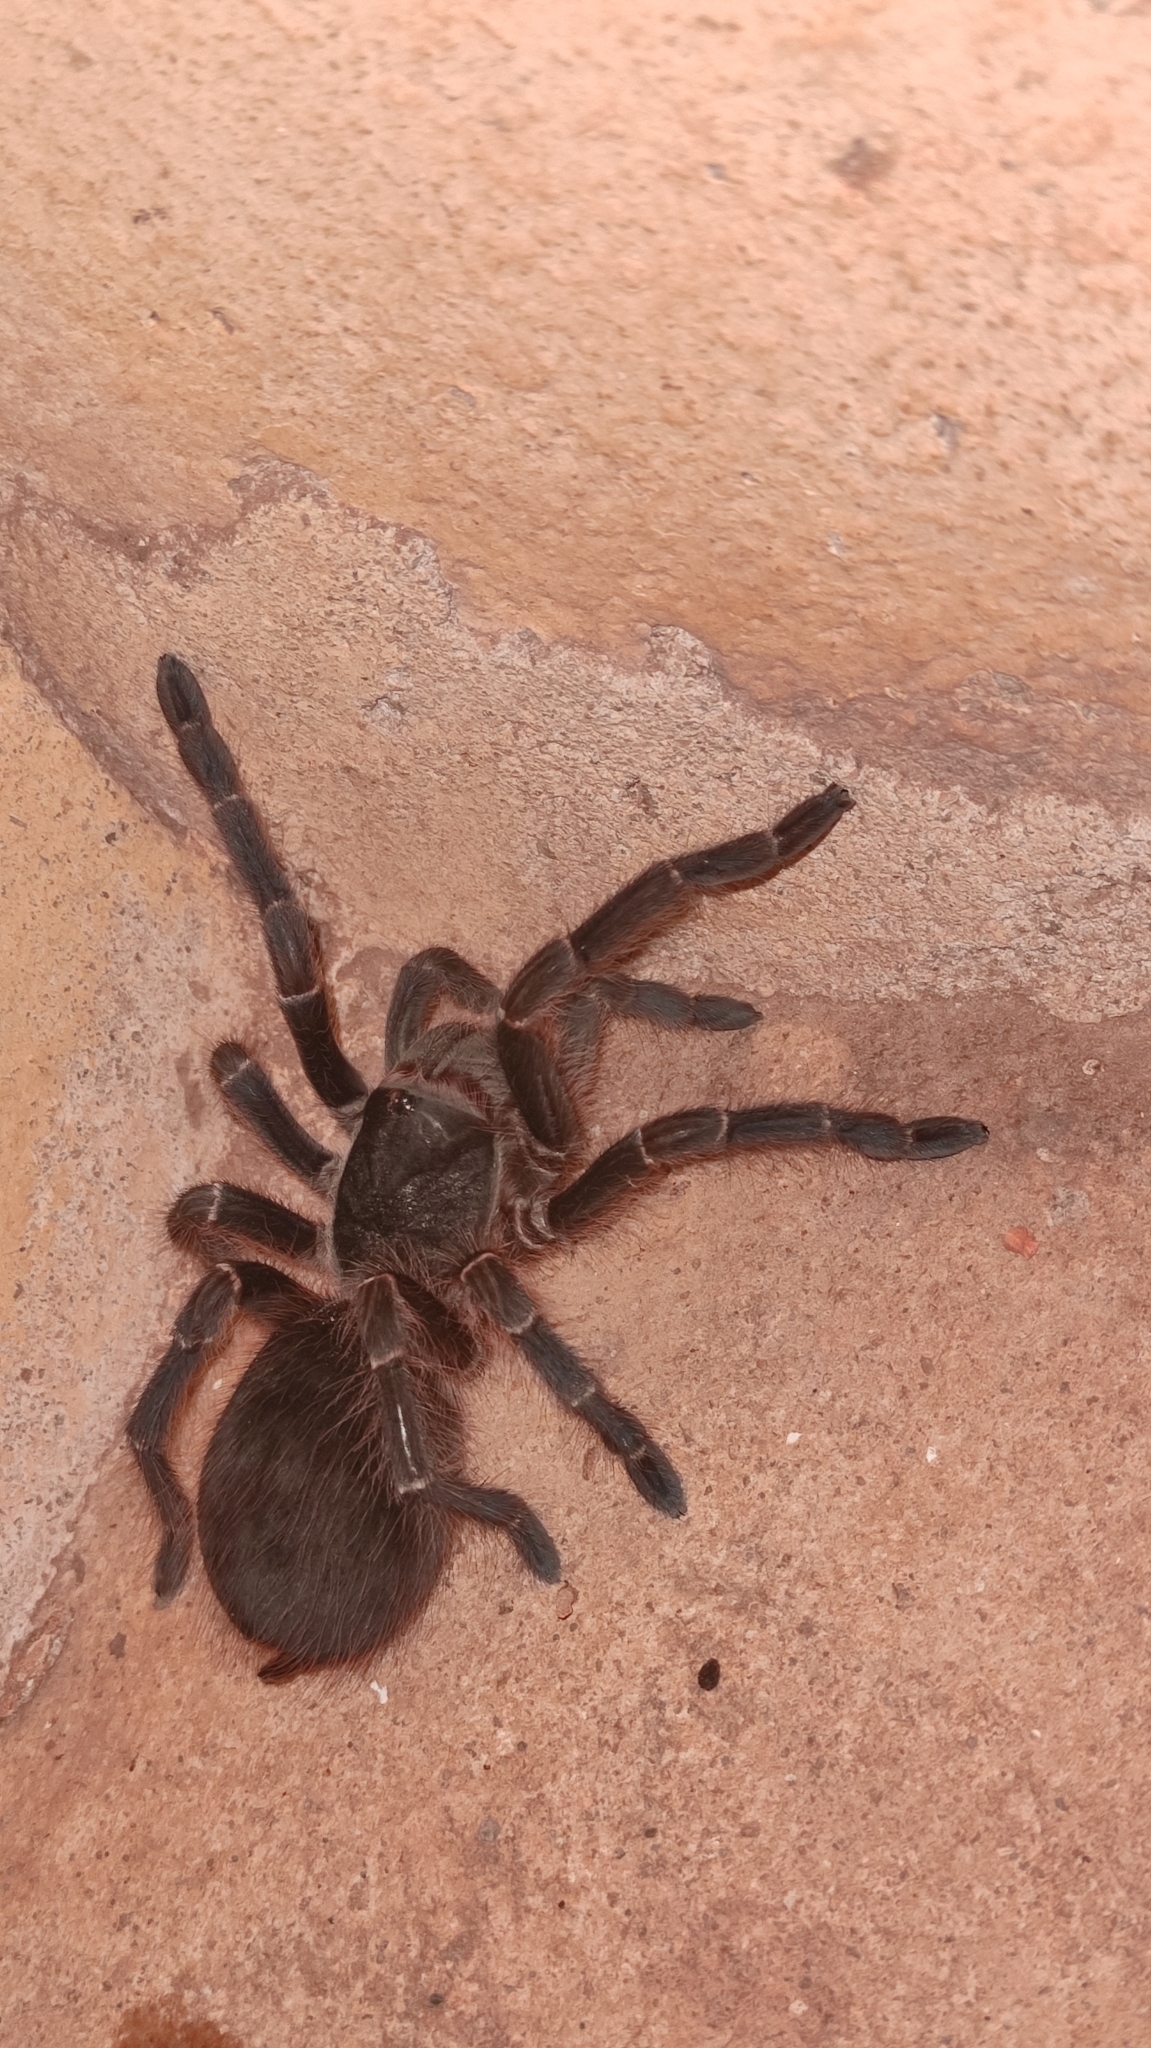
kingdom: Animalia
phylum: Arthropoda
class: Arachnida
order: Araneae
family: Theraphosidae
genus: Acanthoscurria
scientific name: Acanthoscurria natalensis
